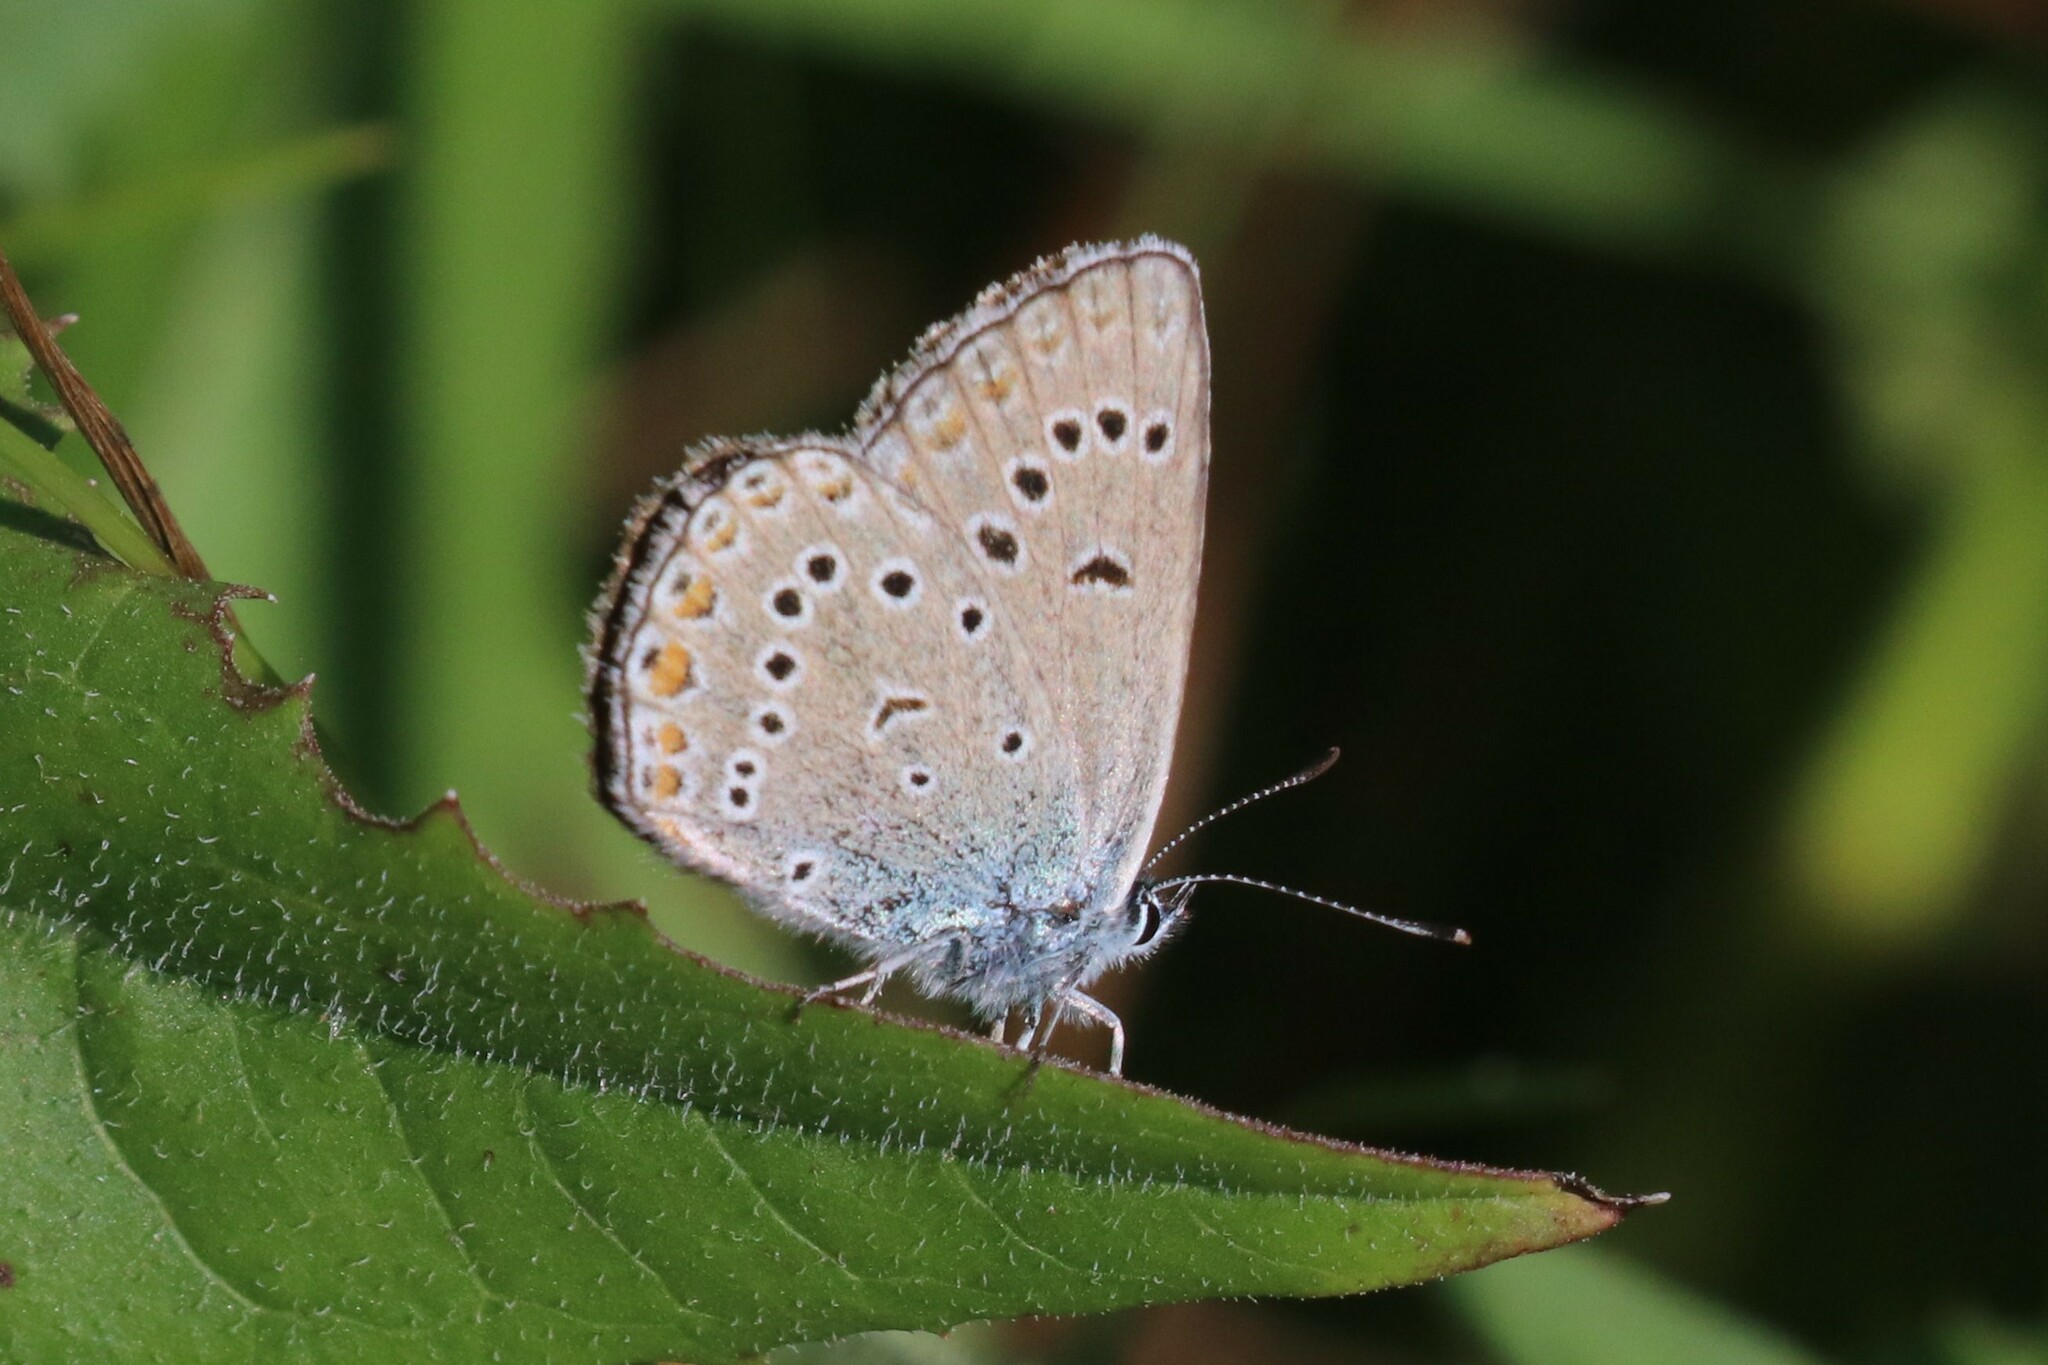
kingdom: Animalia
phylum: Arthropoda
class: Insecta
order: Lepidoptera
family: Lycaenidae
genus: Plebejus
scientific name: Plebejus amanda
